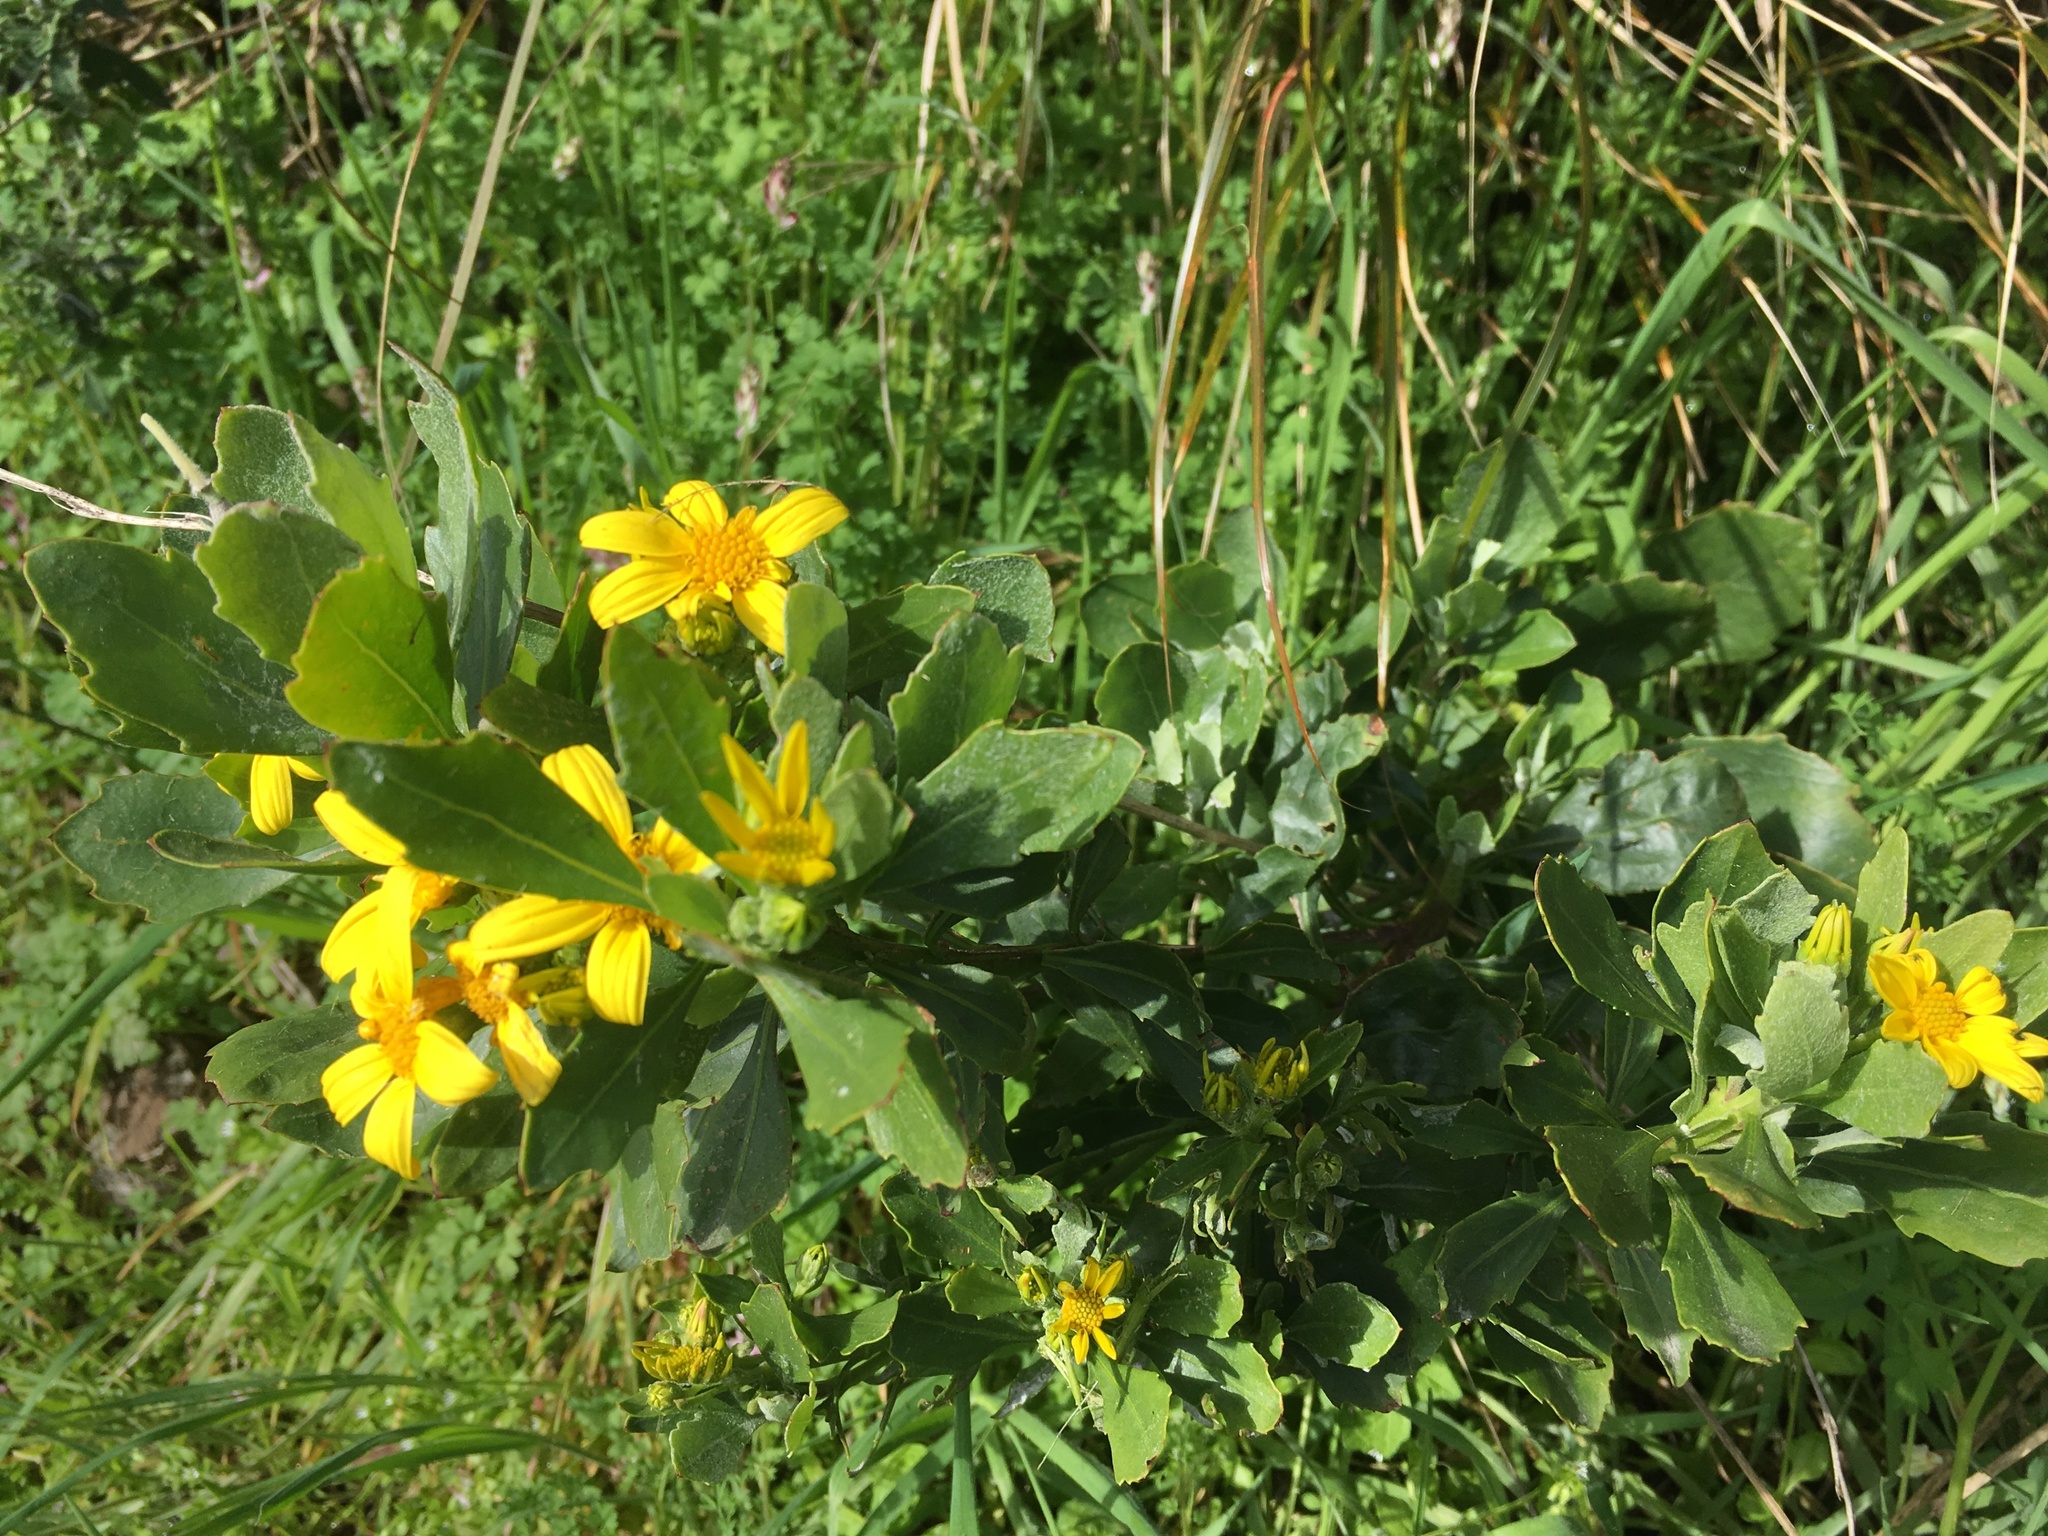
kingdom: Plantae
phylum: Tracheophyta
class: Magnoliopsida
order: Asterales
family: Asteraceae
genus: Osteospermum
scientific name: Osteospermum moniliferum
